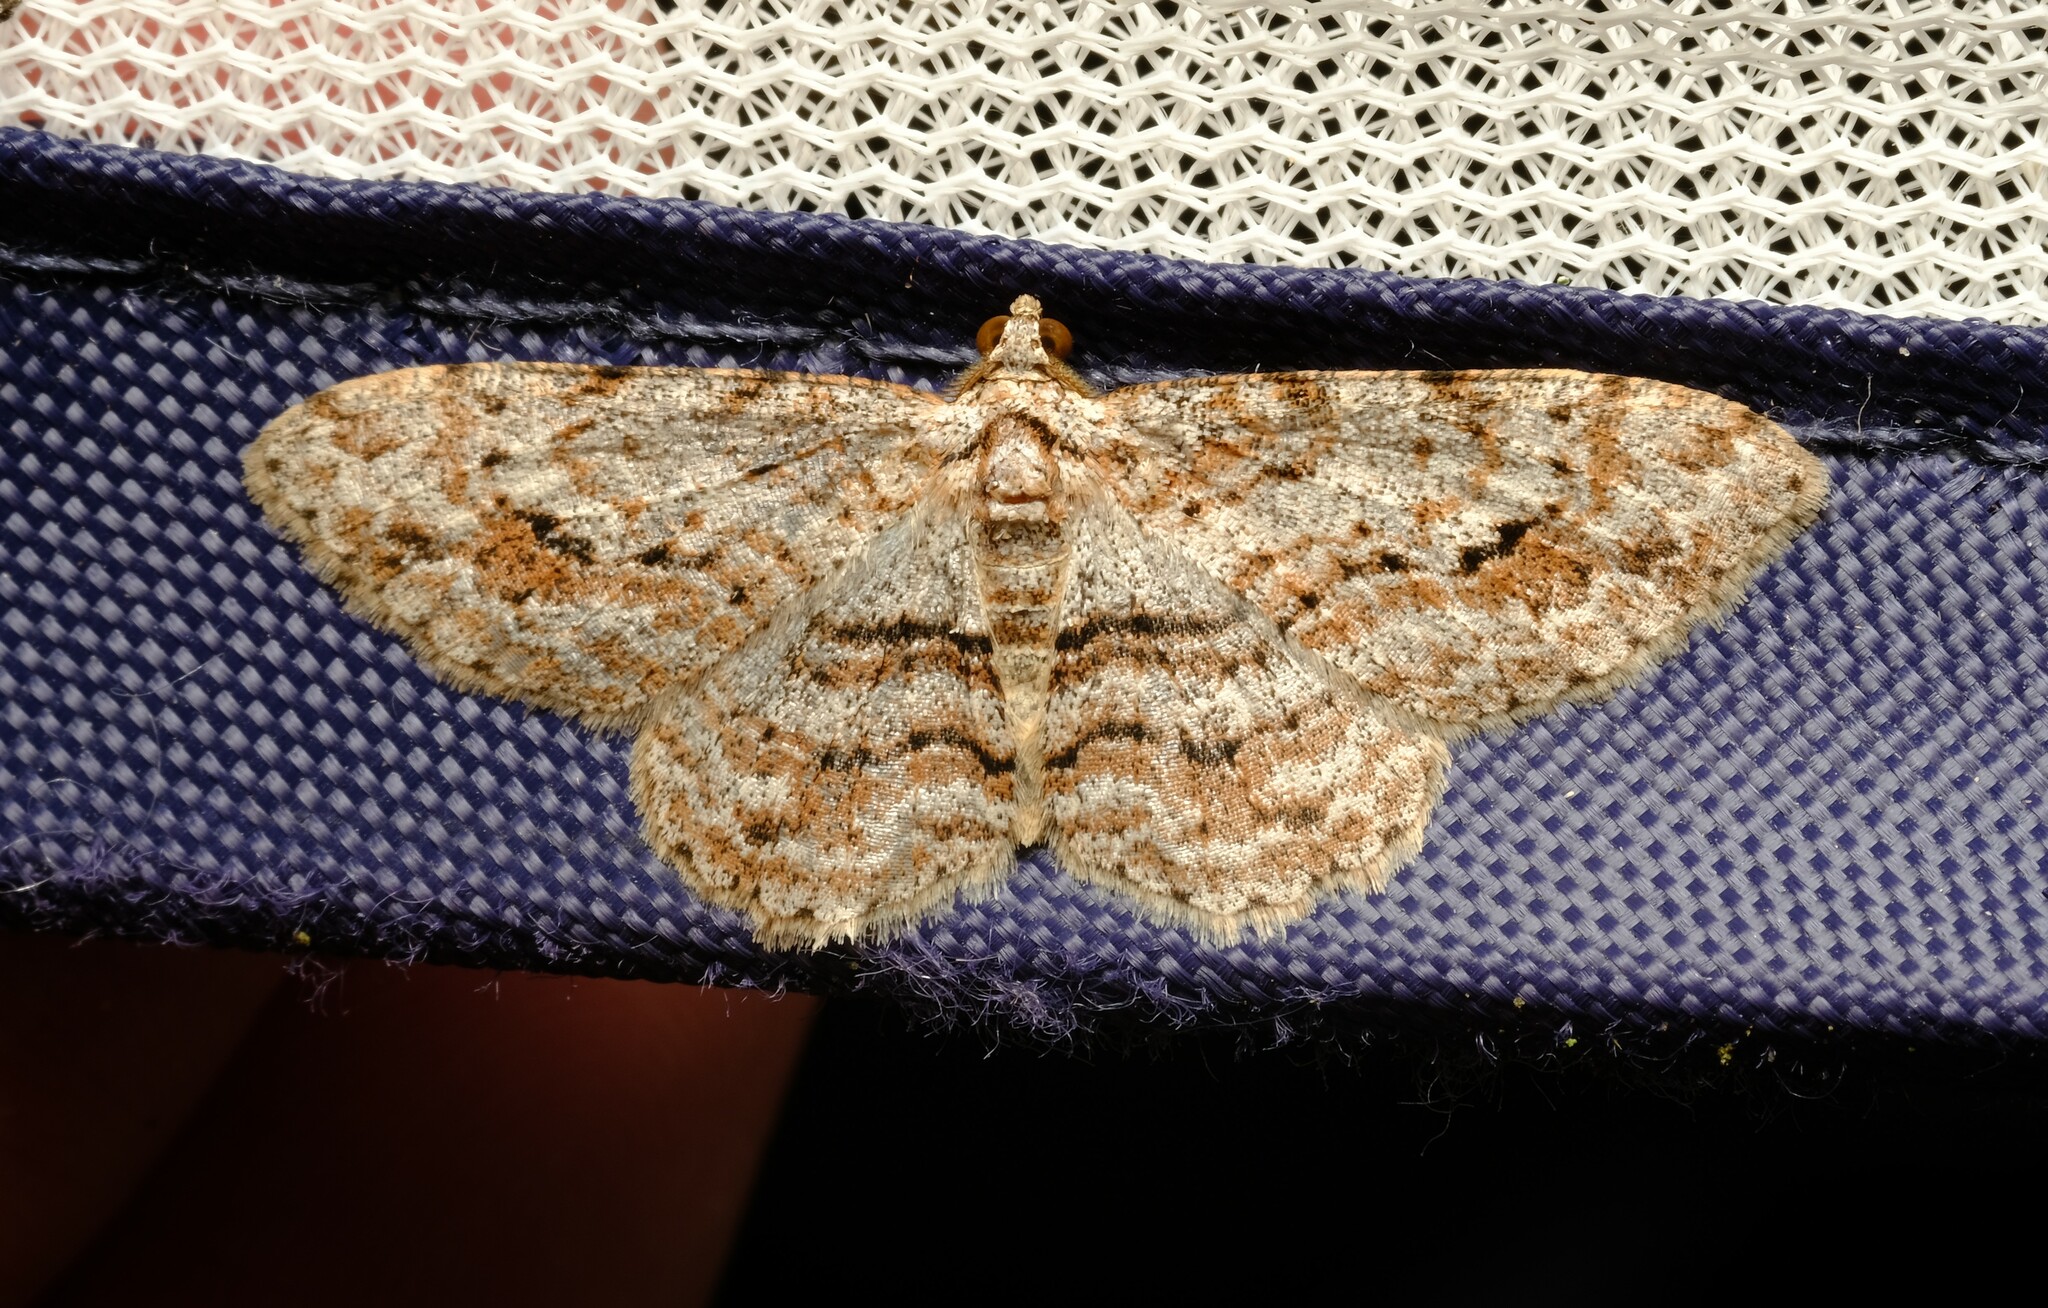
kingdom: Animalia
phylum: Arthropoda
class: Insecta
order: Lepidoptera
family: Geometridae
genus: Didymoctenia
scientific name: Didymoctenia exsuperata
